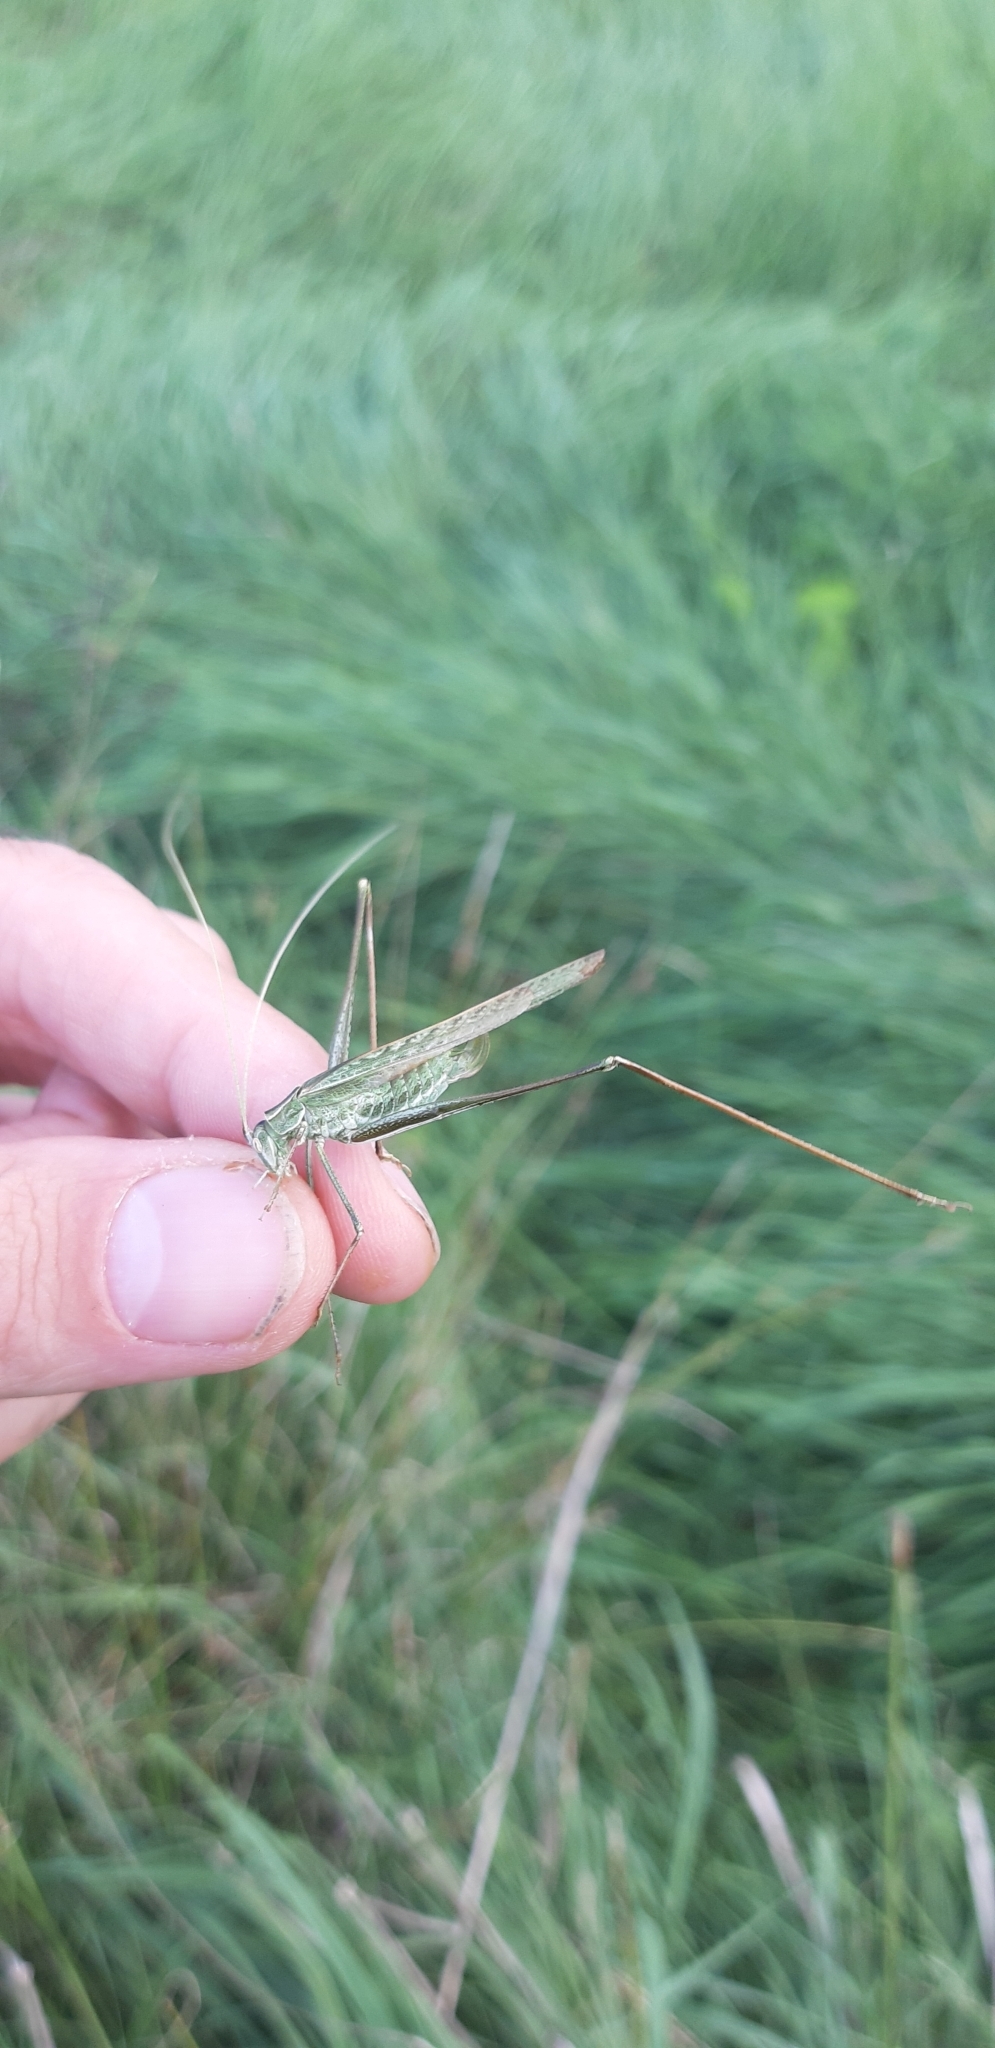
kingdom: Animalia
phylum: Arthropoda
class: Insecta
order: Orthoptera
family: Tettigoniidae
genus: Tylopsis
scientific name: Tylopsis lilifolia
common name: Lily bush-cricket
